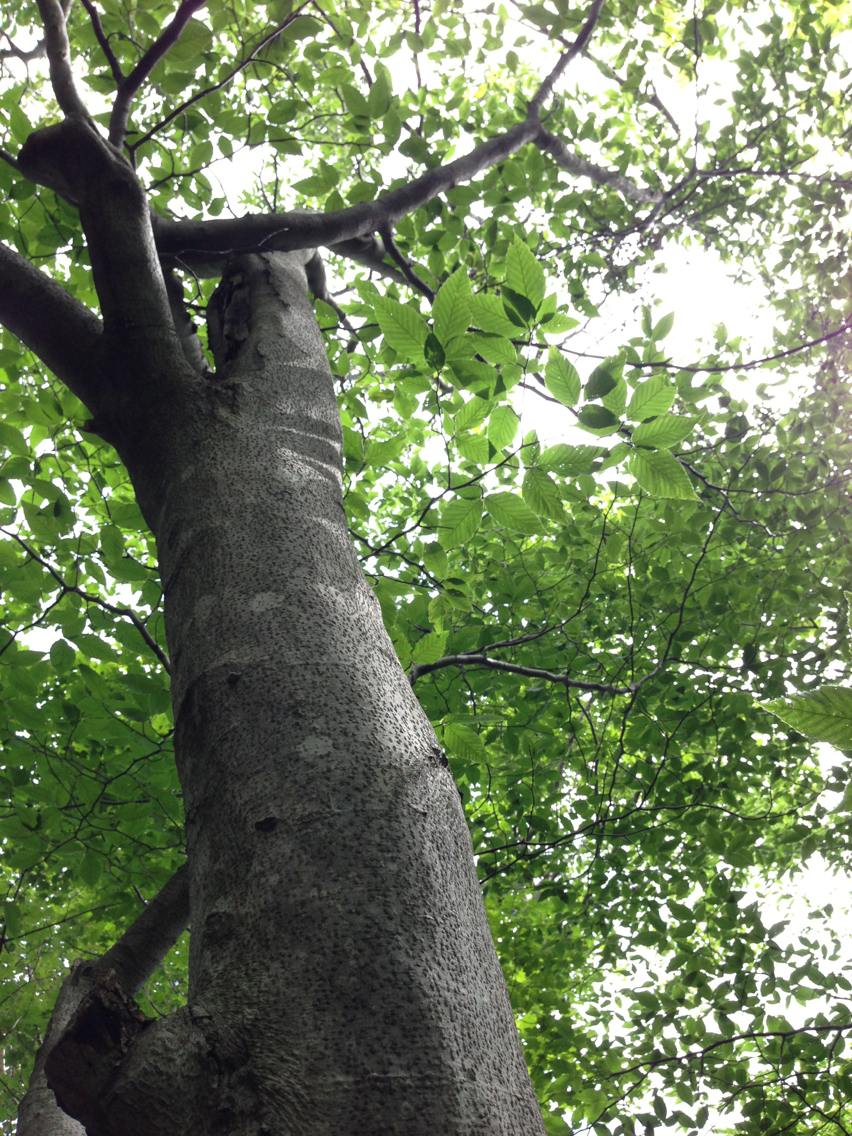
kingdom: Plantae
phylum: Tracheophyta
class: Magnoliopsida
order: Fagales
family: Fagaceae
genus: Fagus
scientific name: Fagus grandifolia
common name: American beech
